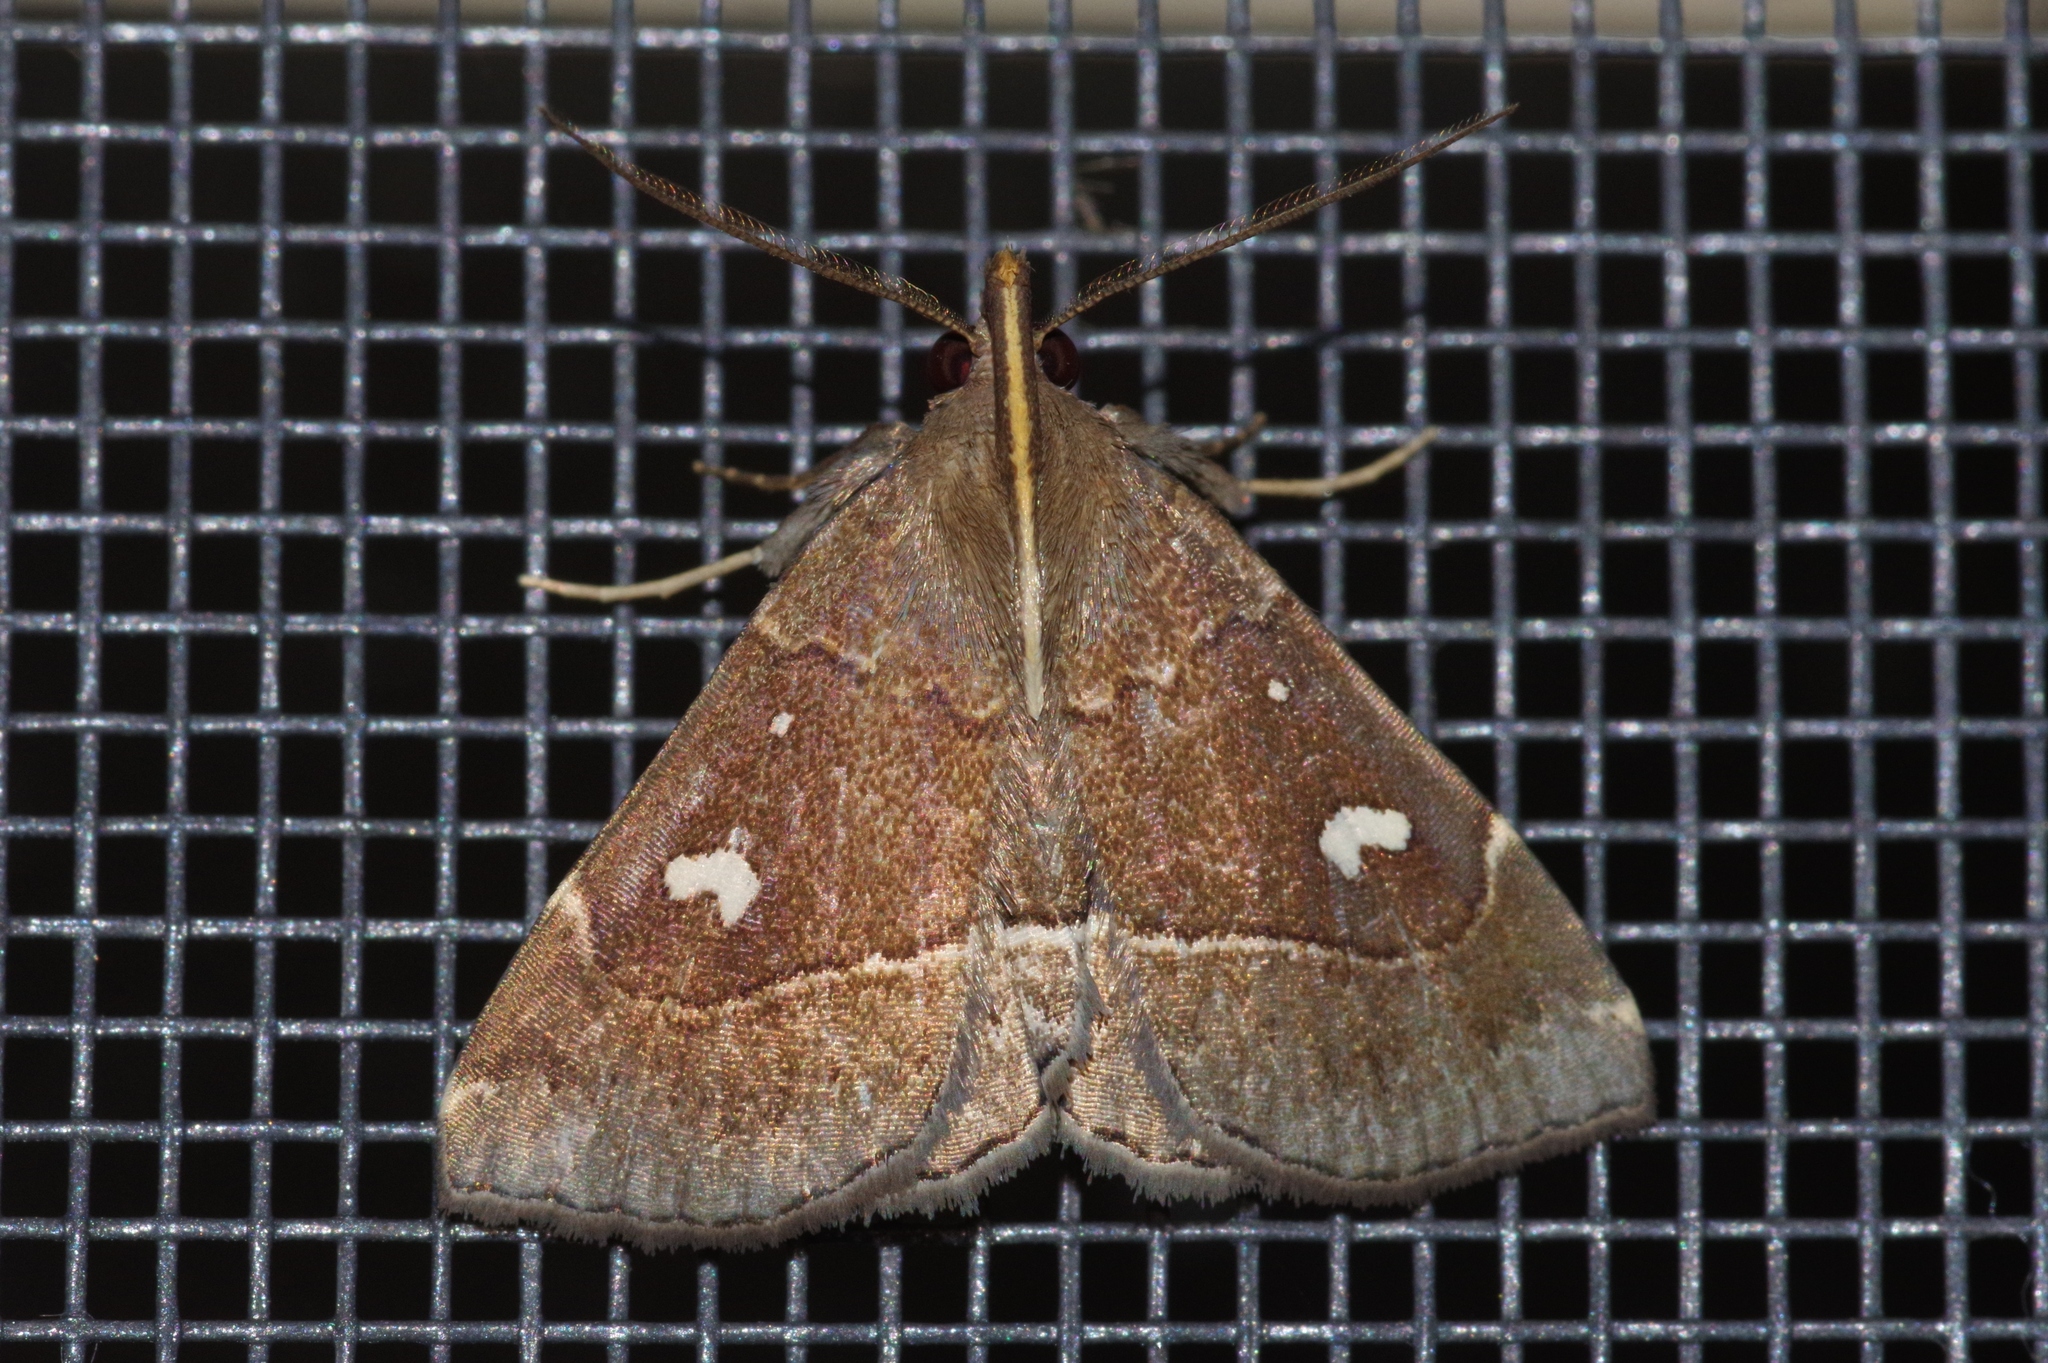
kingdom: Animalia
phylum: Arthropoda
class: Insecta
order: Lepidoptera
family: Erebidae
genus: Cidariplura
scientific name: Cidariplura gladiata
